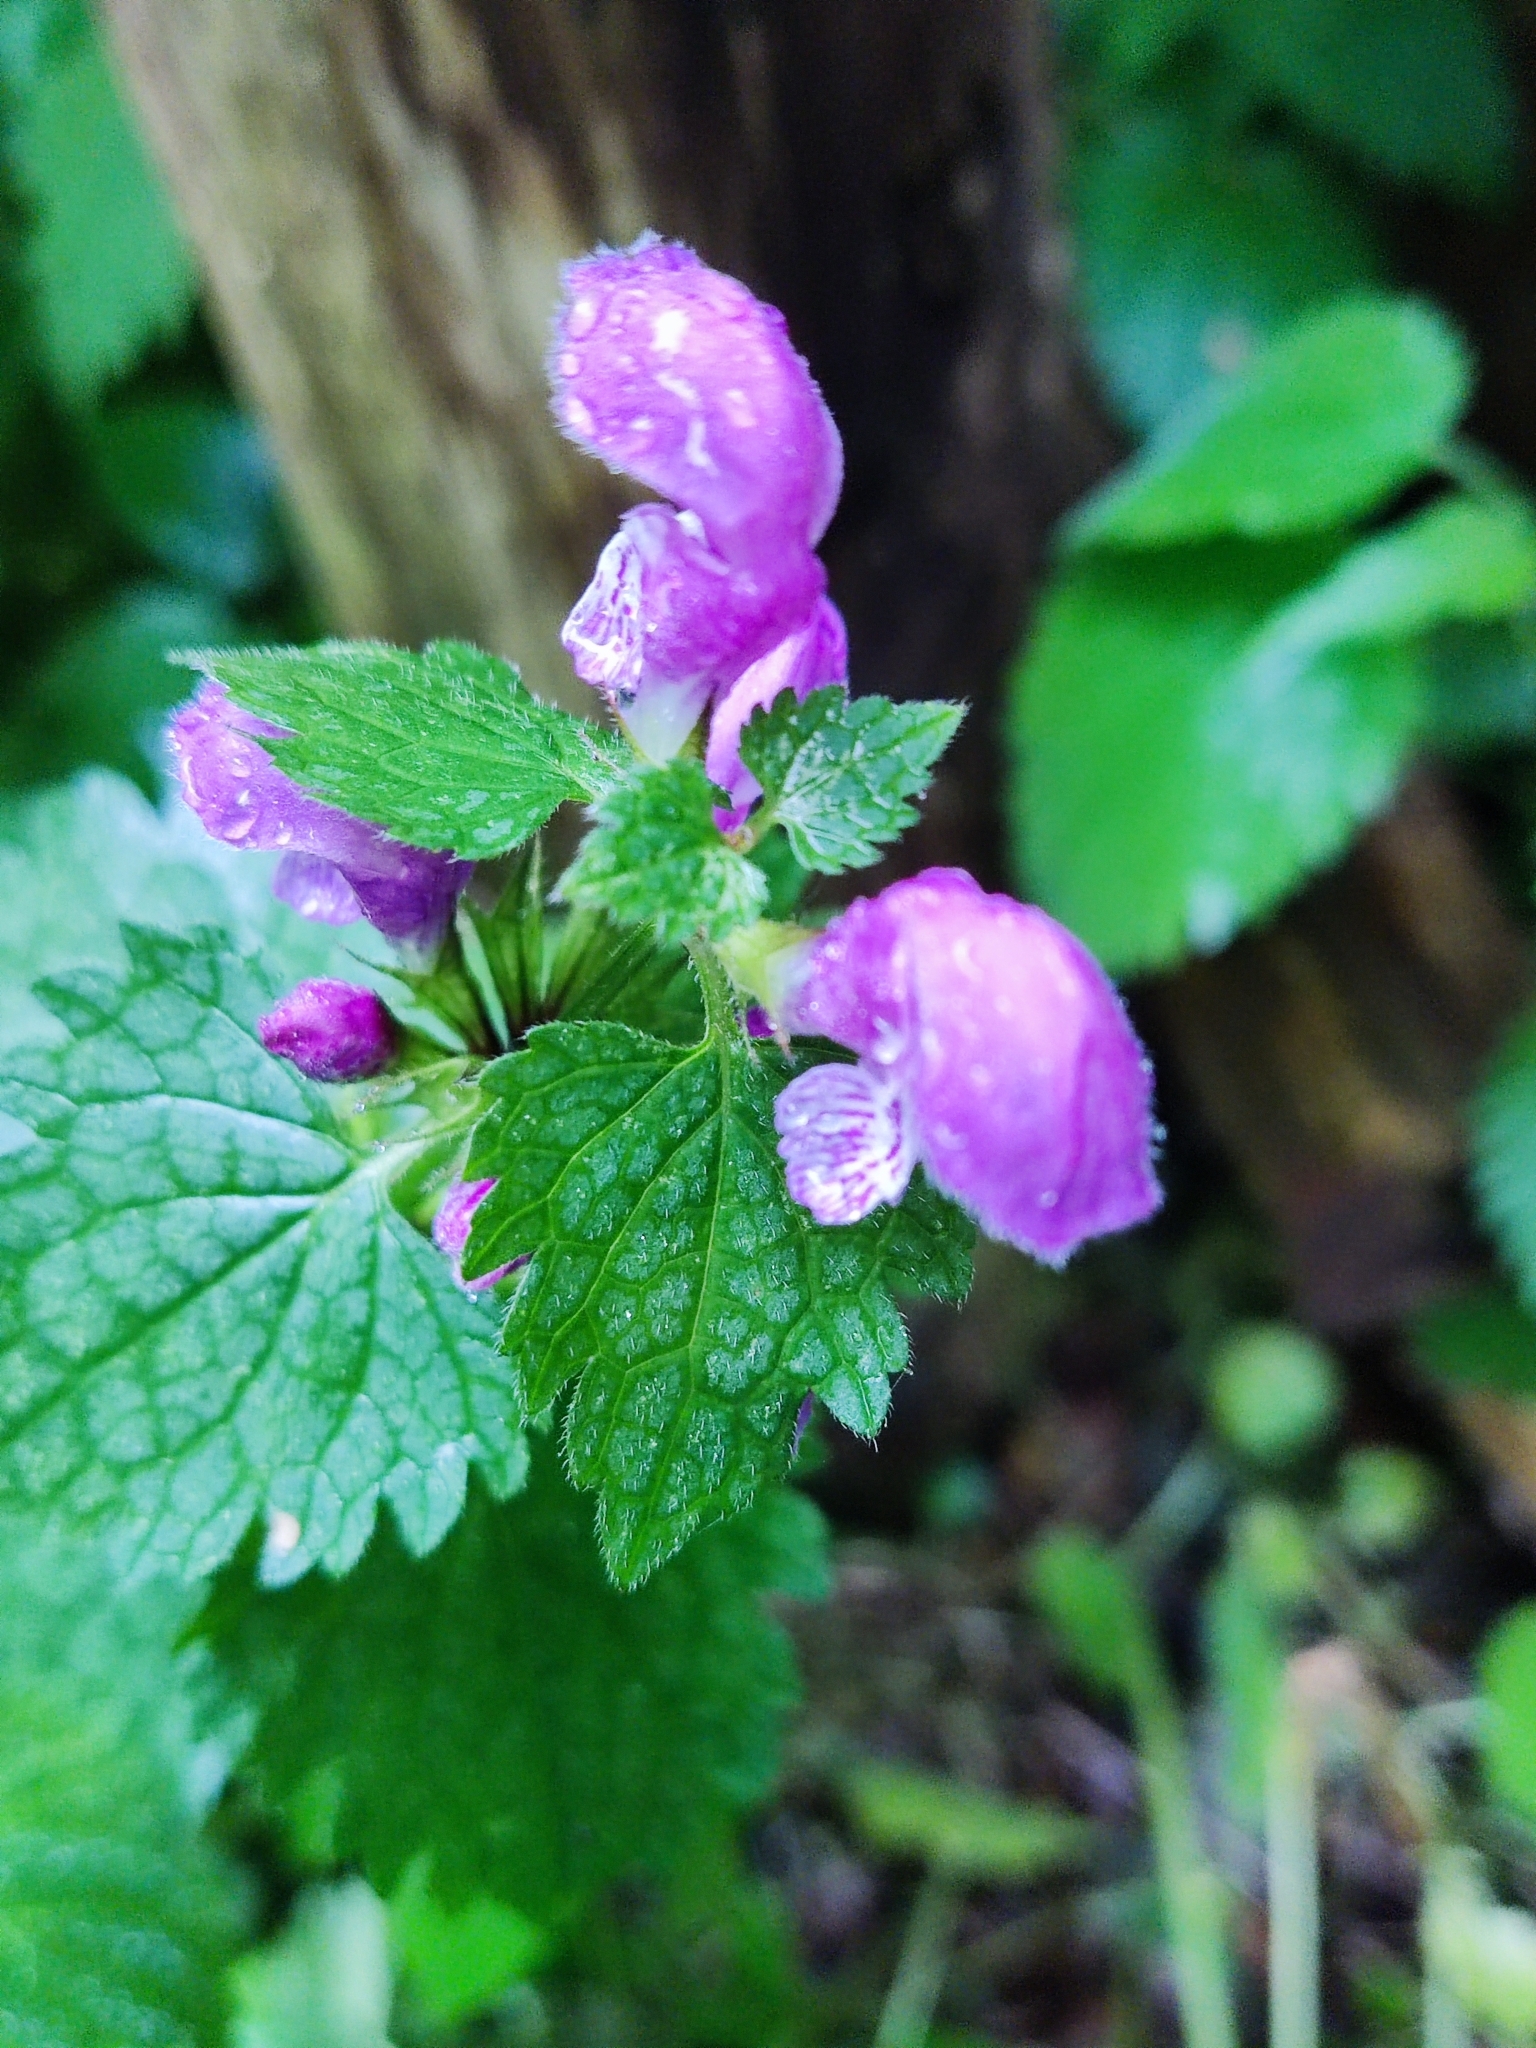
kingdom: Plantae
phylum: Tracheophyta
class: Magnoliopsida
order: Lamiales
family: Lamiaceae
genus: Lamium
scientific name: Lamium maculatum
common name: Spotted dead-nettle
